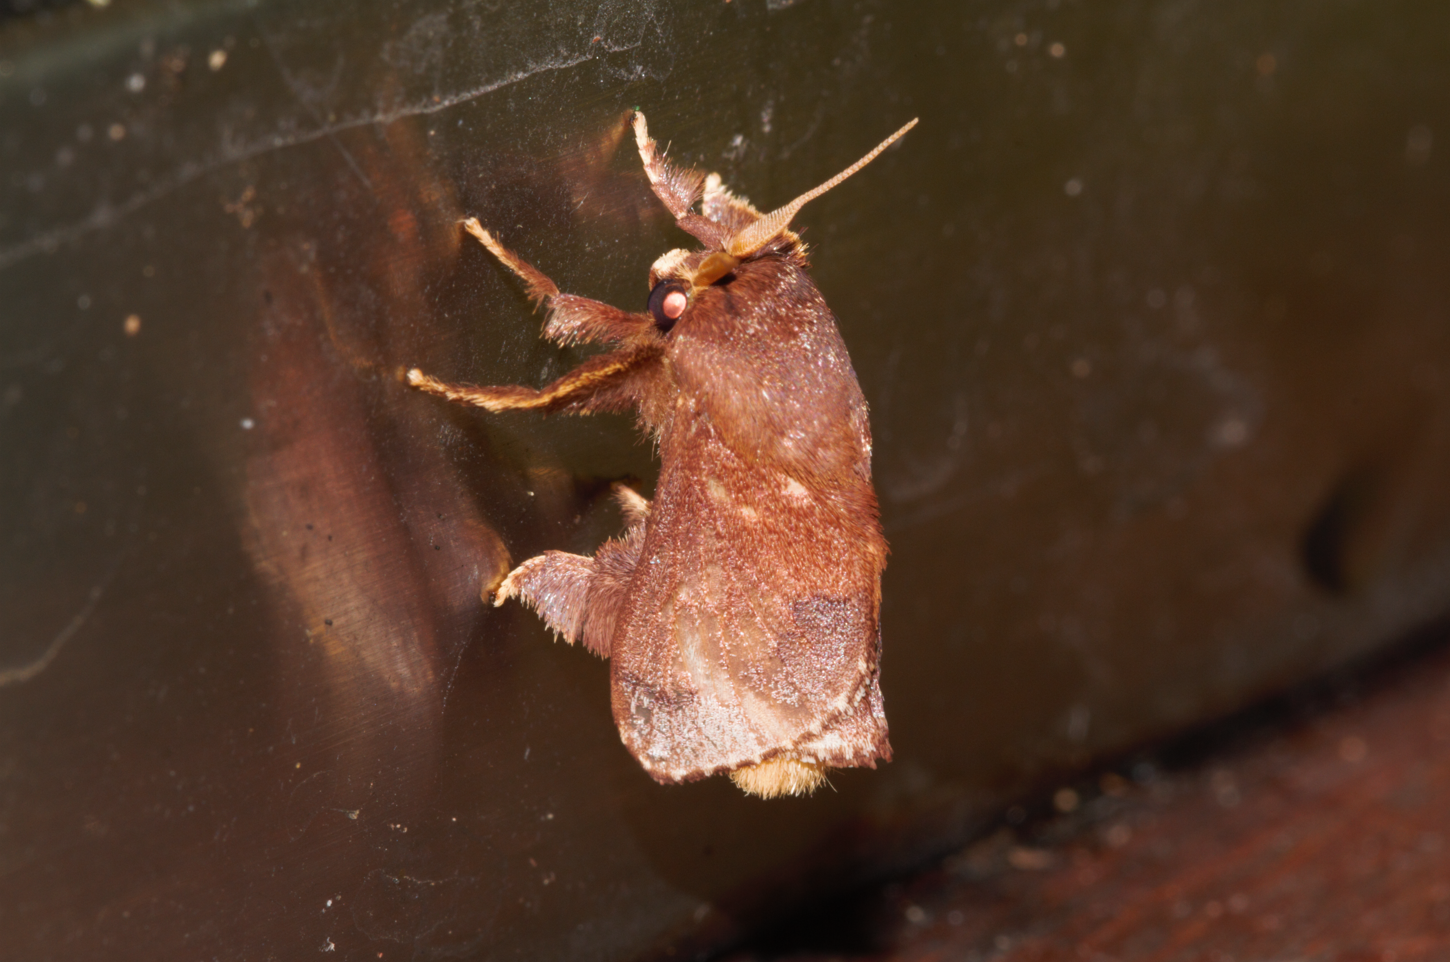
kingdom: Animalia
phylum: Arthropoda
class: Insecta
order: Lepidoptera
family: Limacodidae
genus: Talima
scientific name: Talima postica
